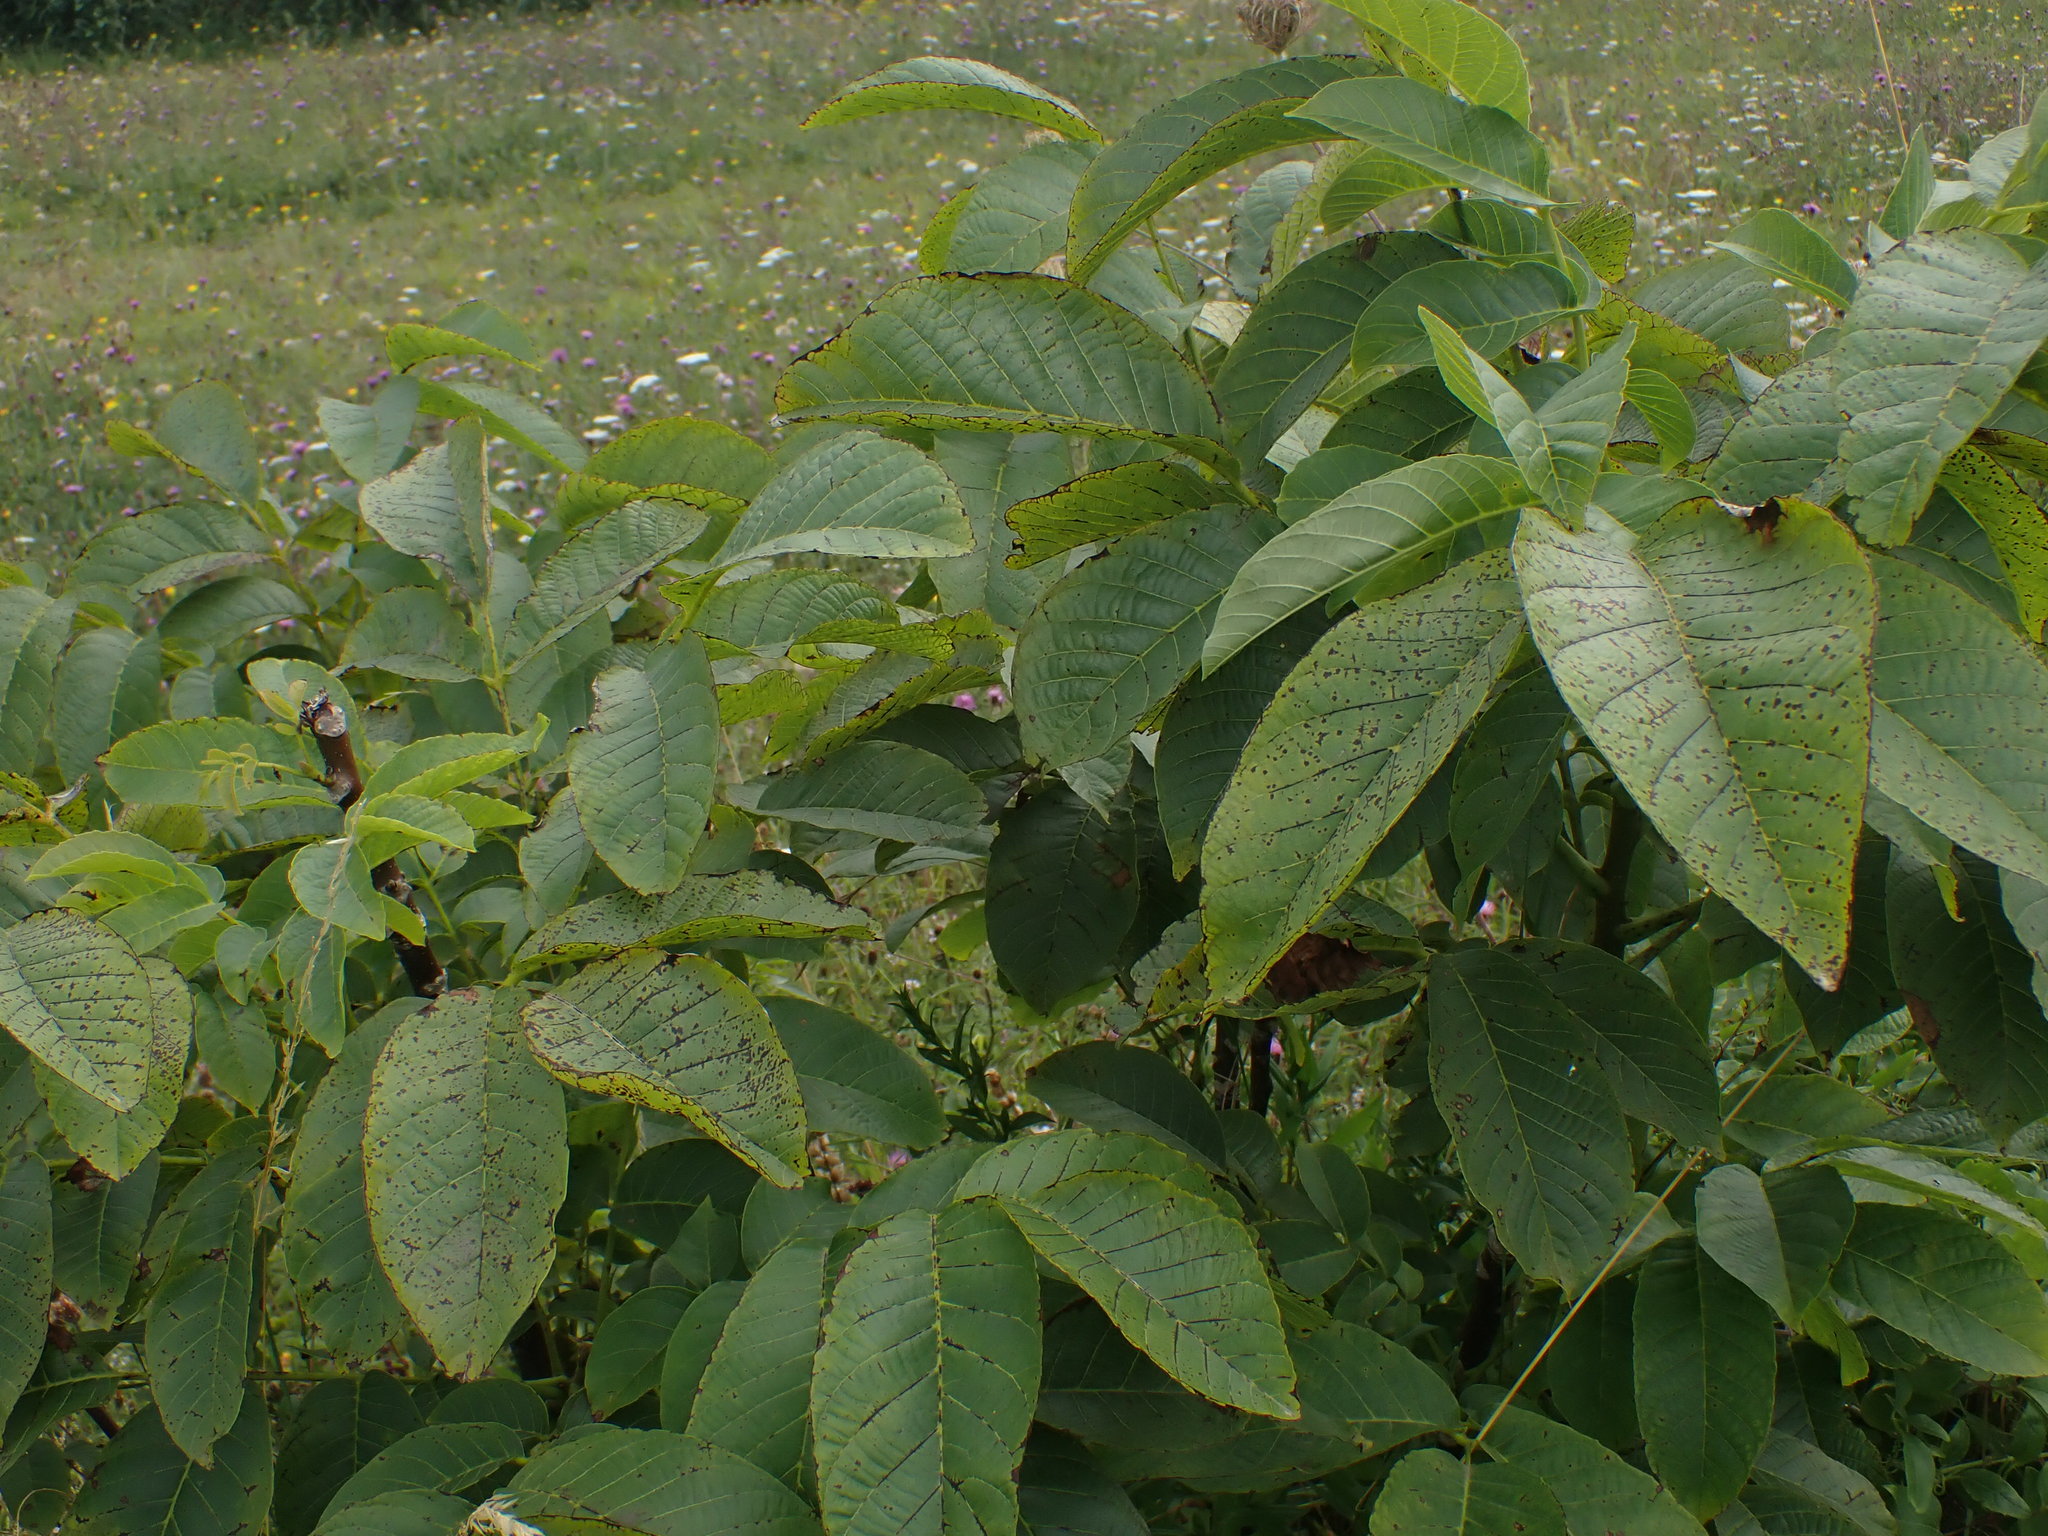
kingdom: Plantae
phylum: Tracheophyta
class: Magnoliopsida
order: Fagales
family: Juglandaceae
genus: Juglans
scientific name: Juglans regia
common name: Walnut
